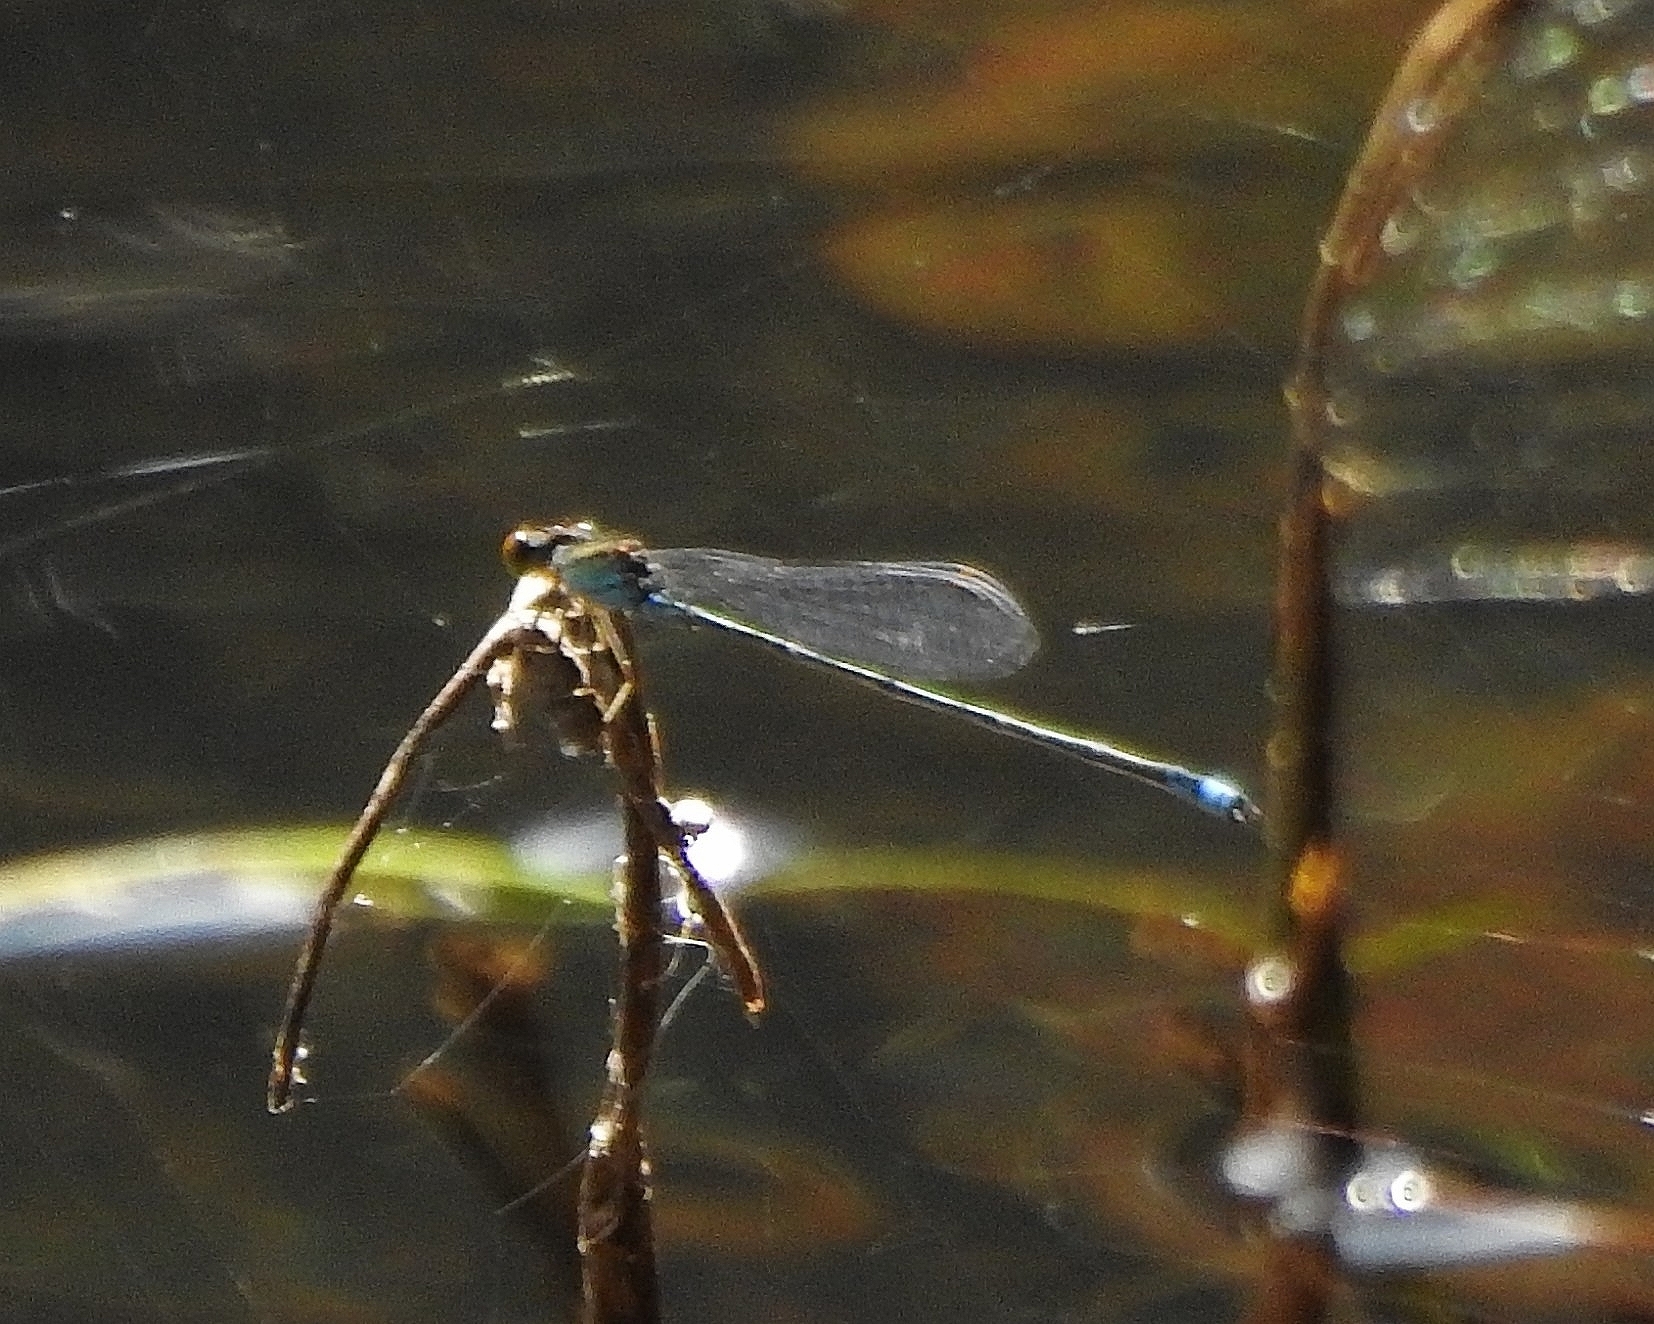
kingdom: Animalia
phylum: Arthropoda
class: Insecta
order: Odonata
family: Coenagrionidae
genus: Pseudagrion
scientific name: Pseudagrion rubriceps
